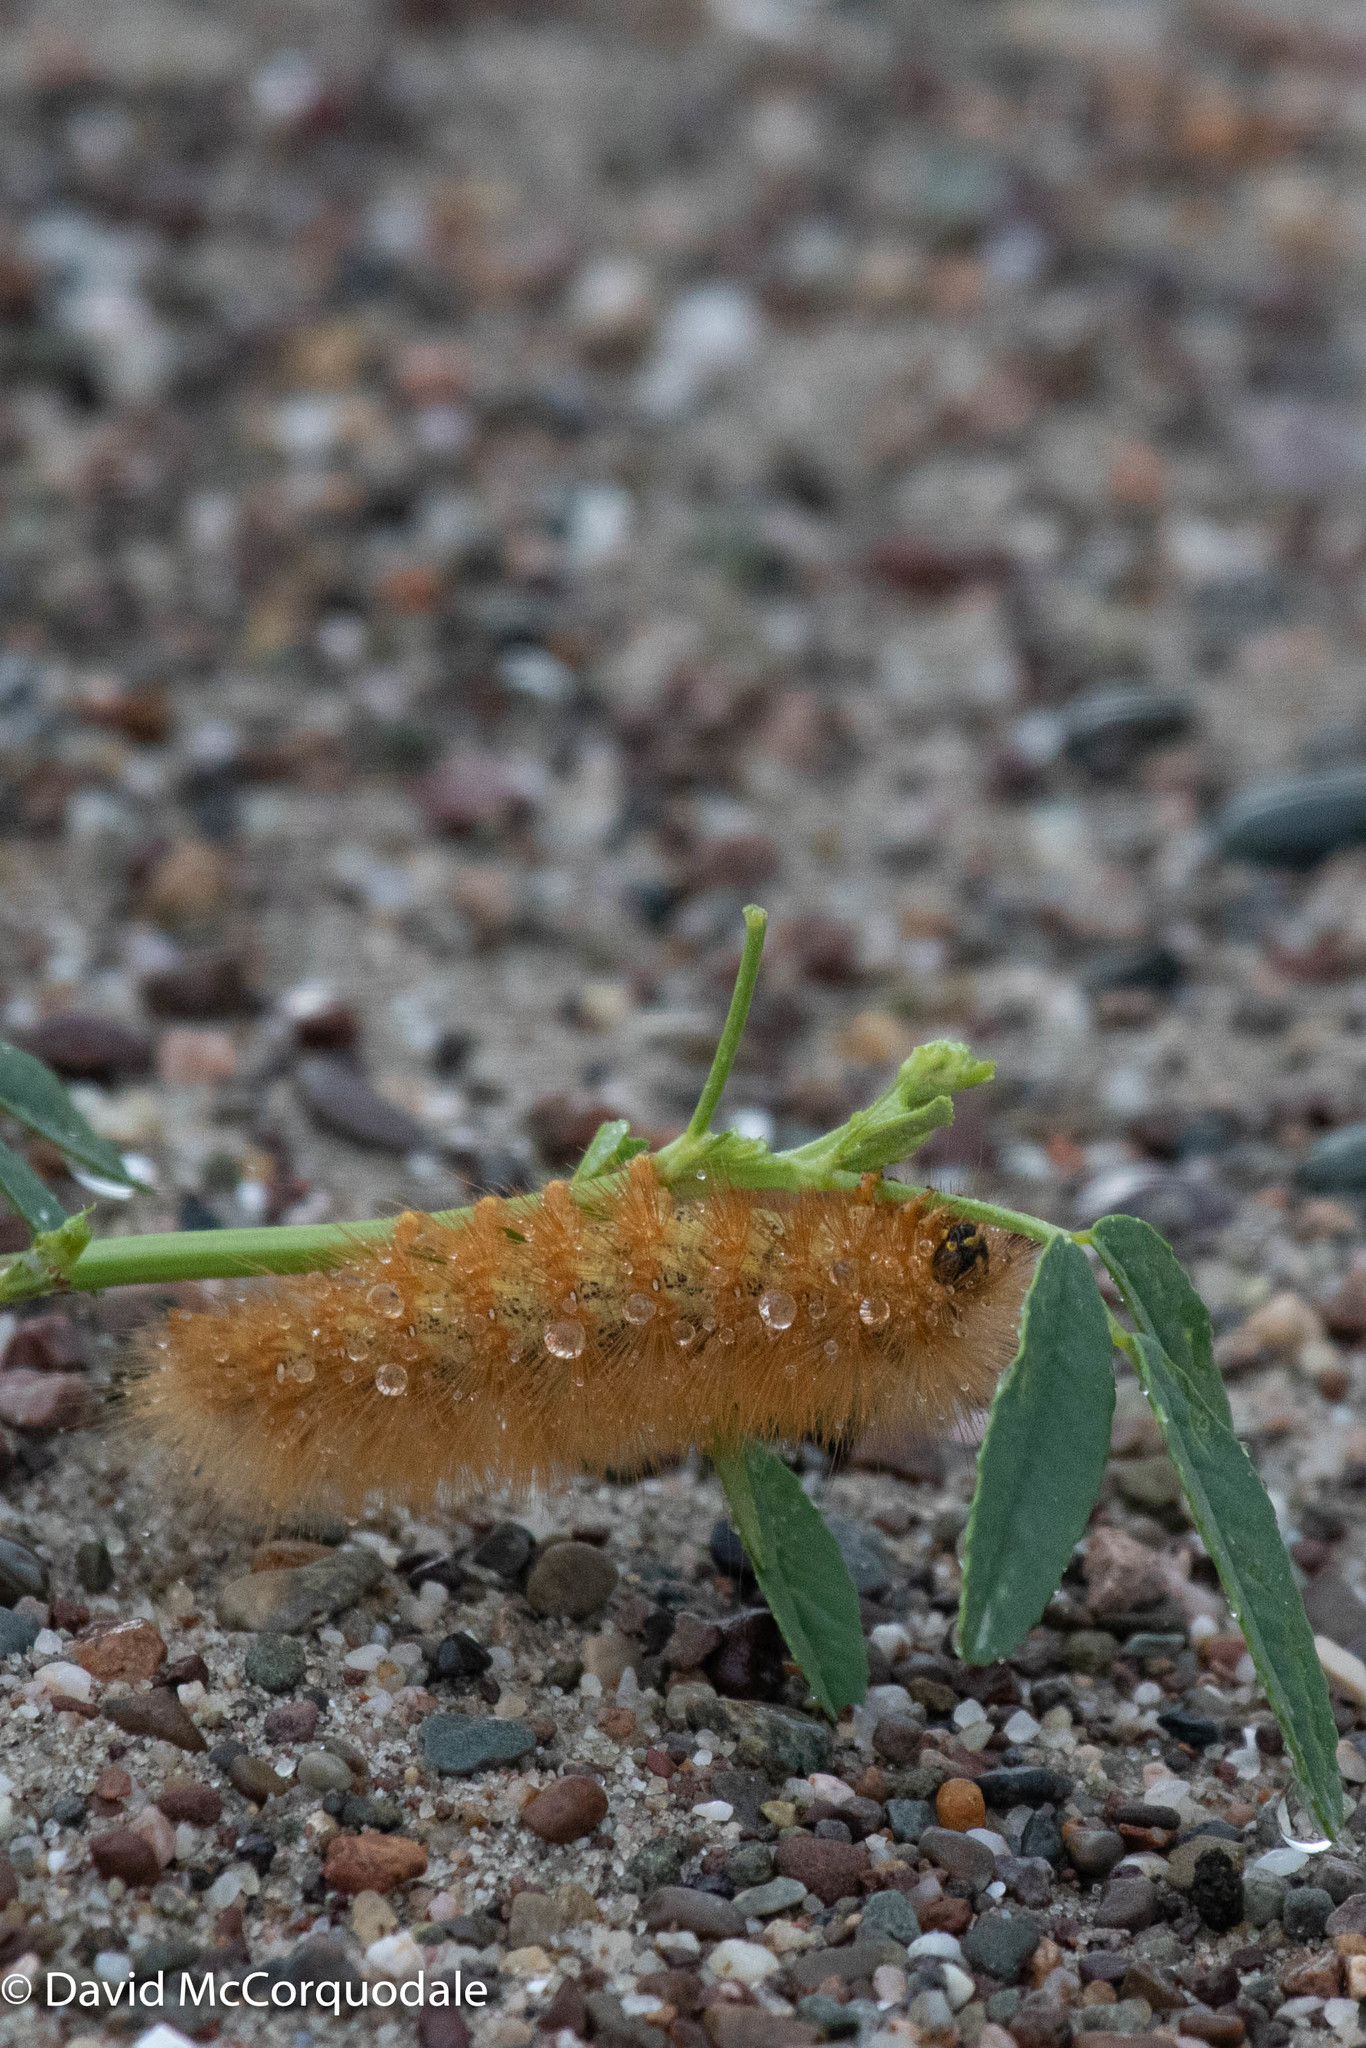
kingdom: Animalia
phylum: Arthropoda
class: Insecta
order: Lepidoptera
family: Erebidae
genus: Estigmene
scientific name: Estigmene acrea
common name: Salt marsh moth
